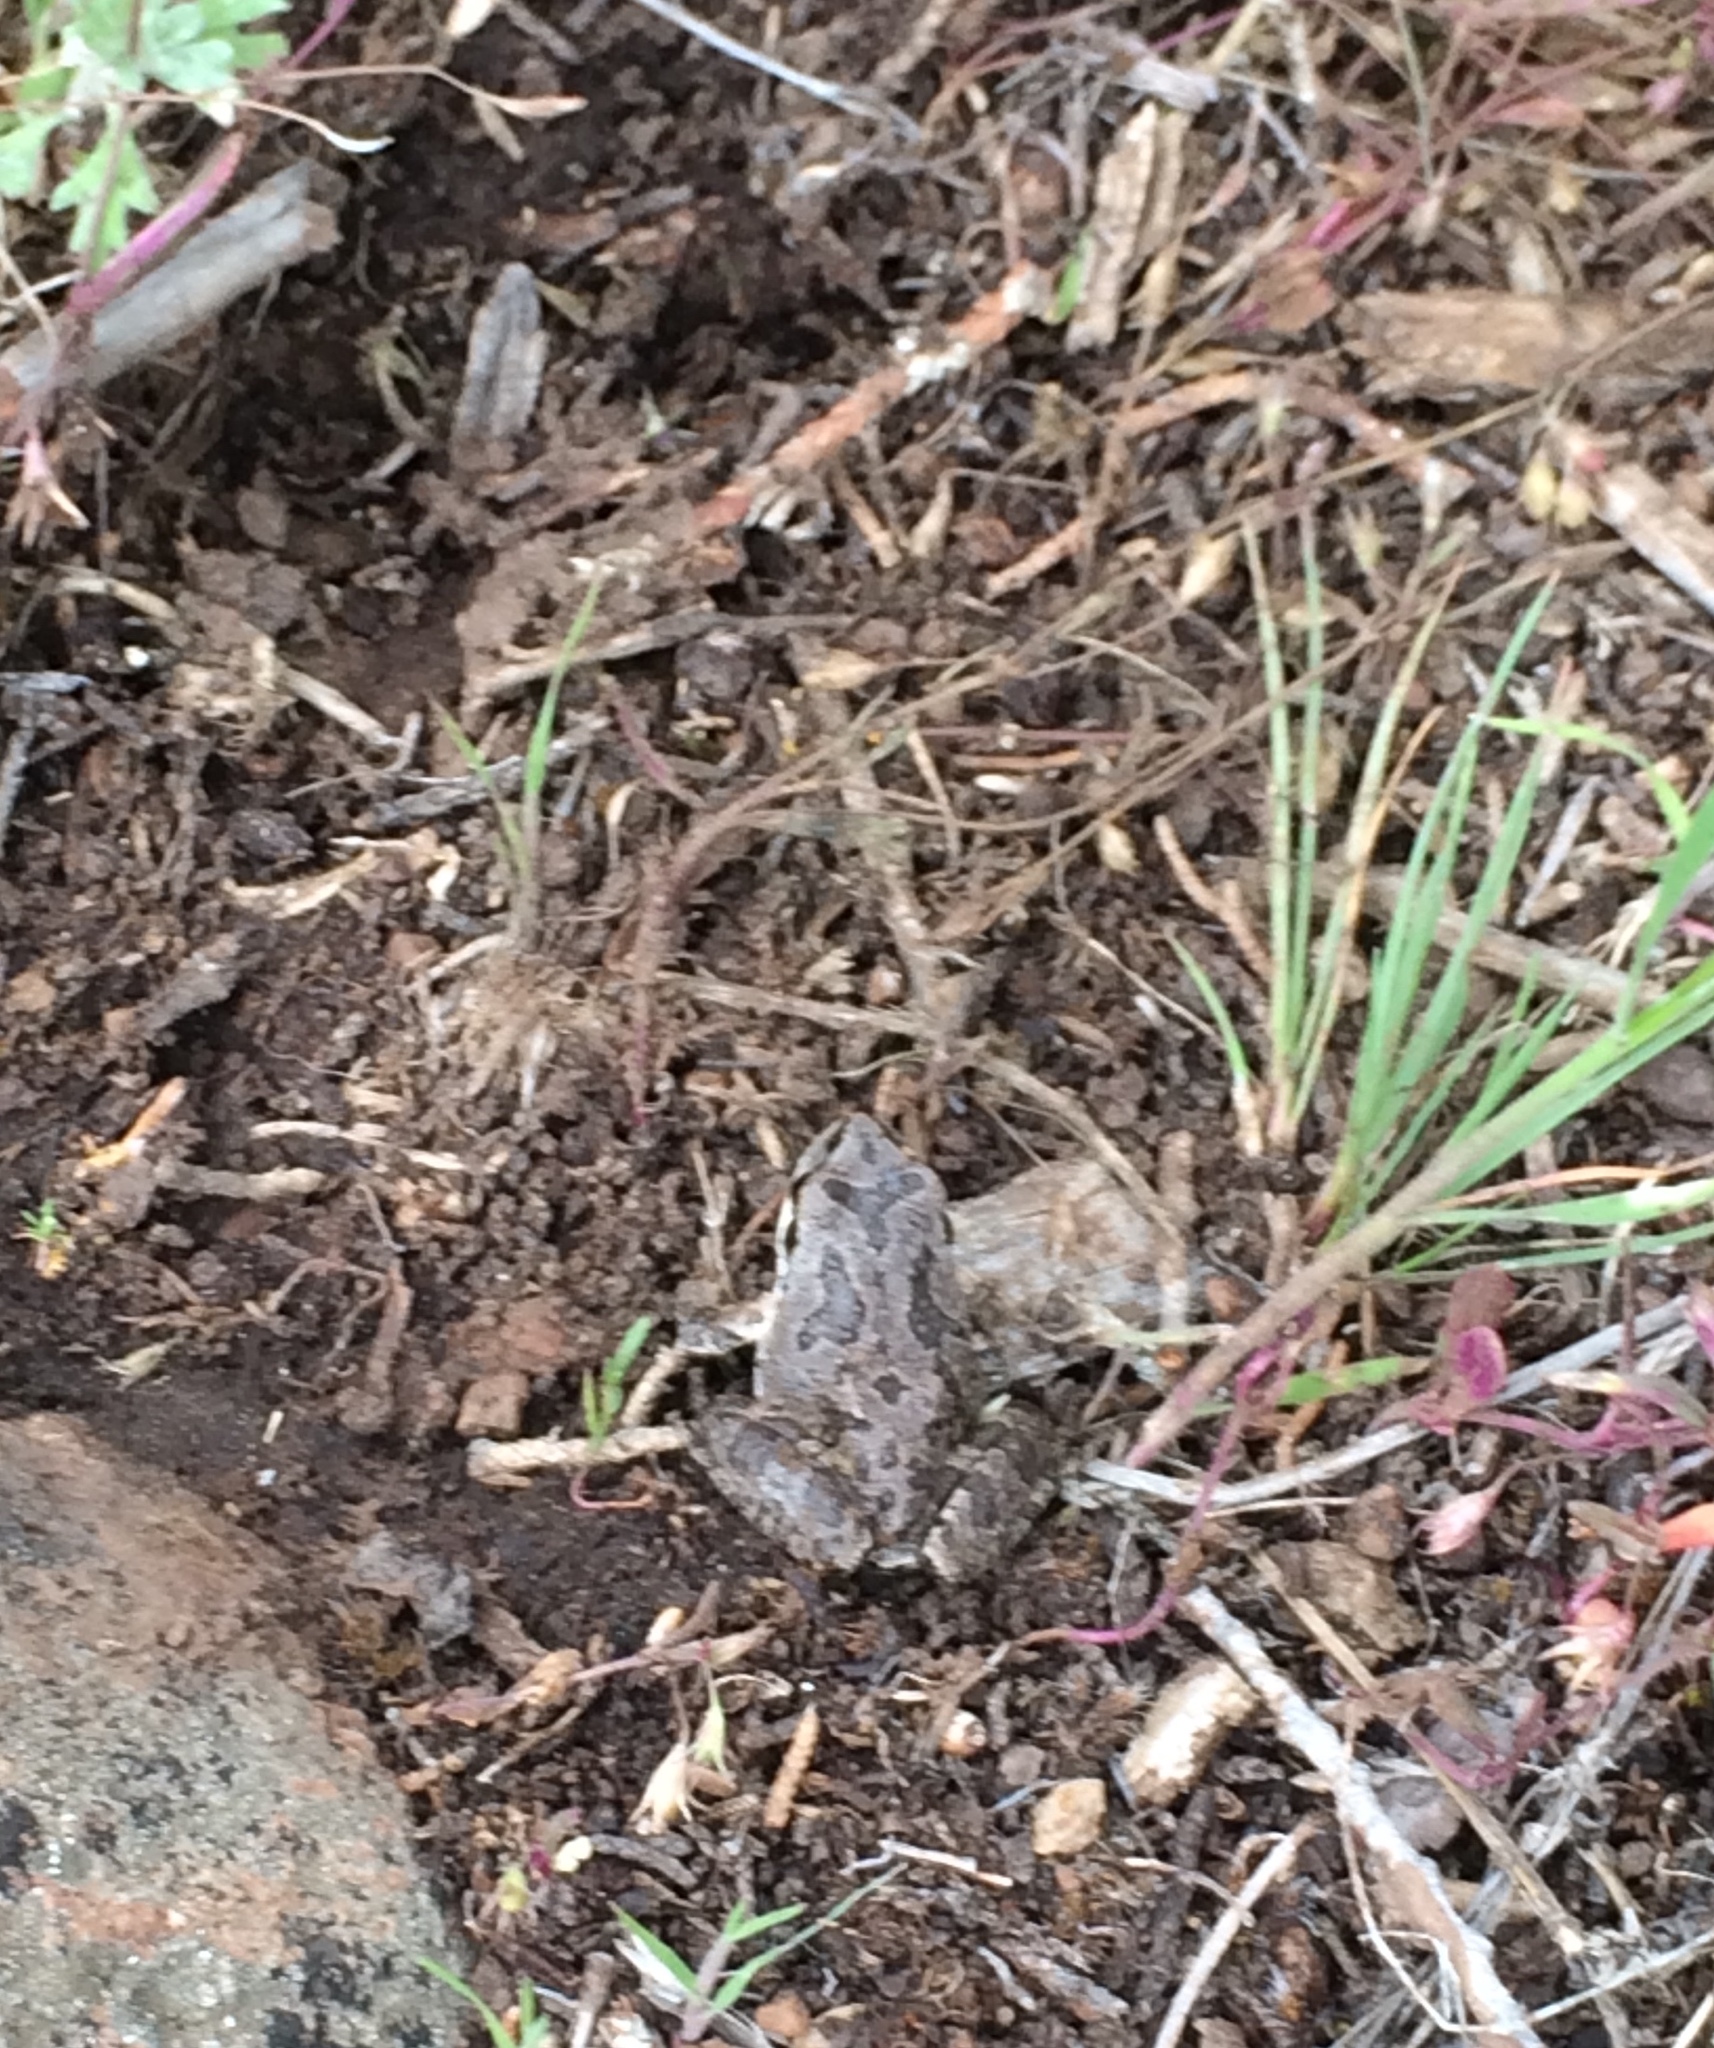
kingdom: Animalia
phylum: Chordata
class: Amphibia
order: Anura
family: Hylidae
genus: Pseudacris
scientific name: Pseudacris regilla
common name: Pacific chorus frog
